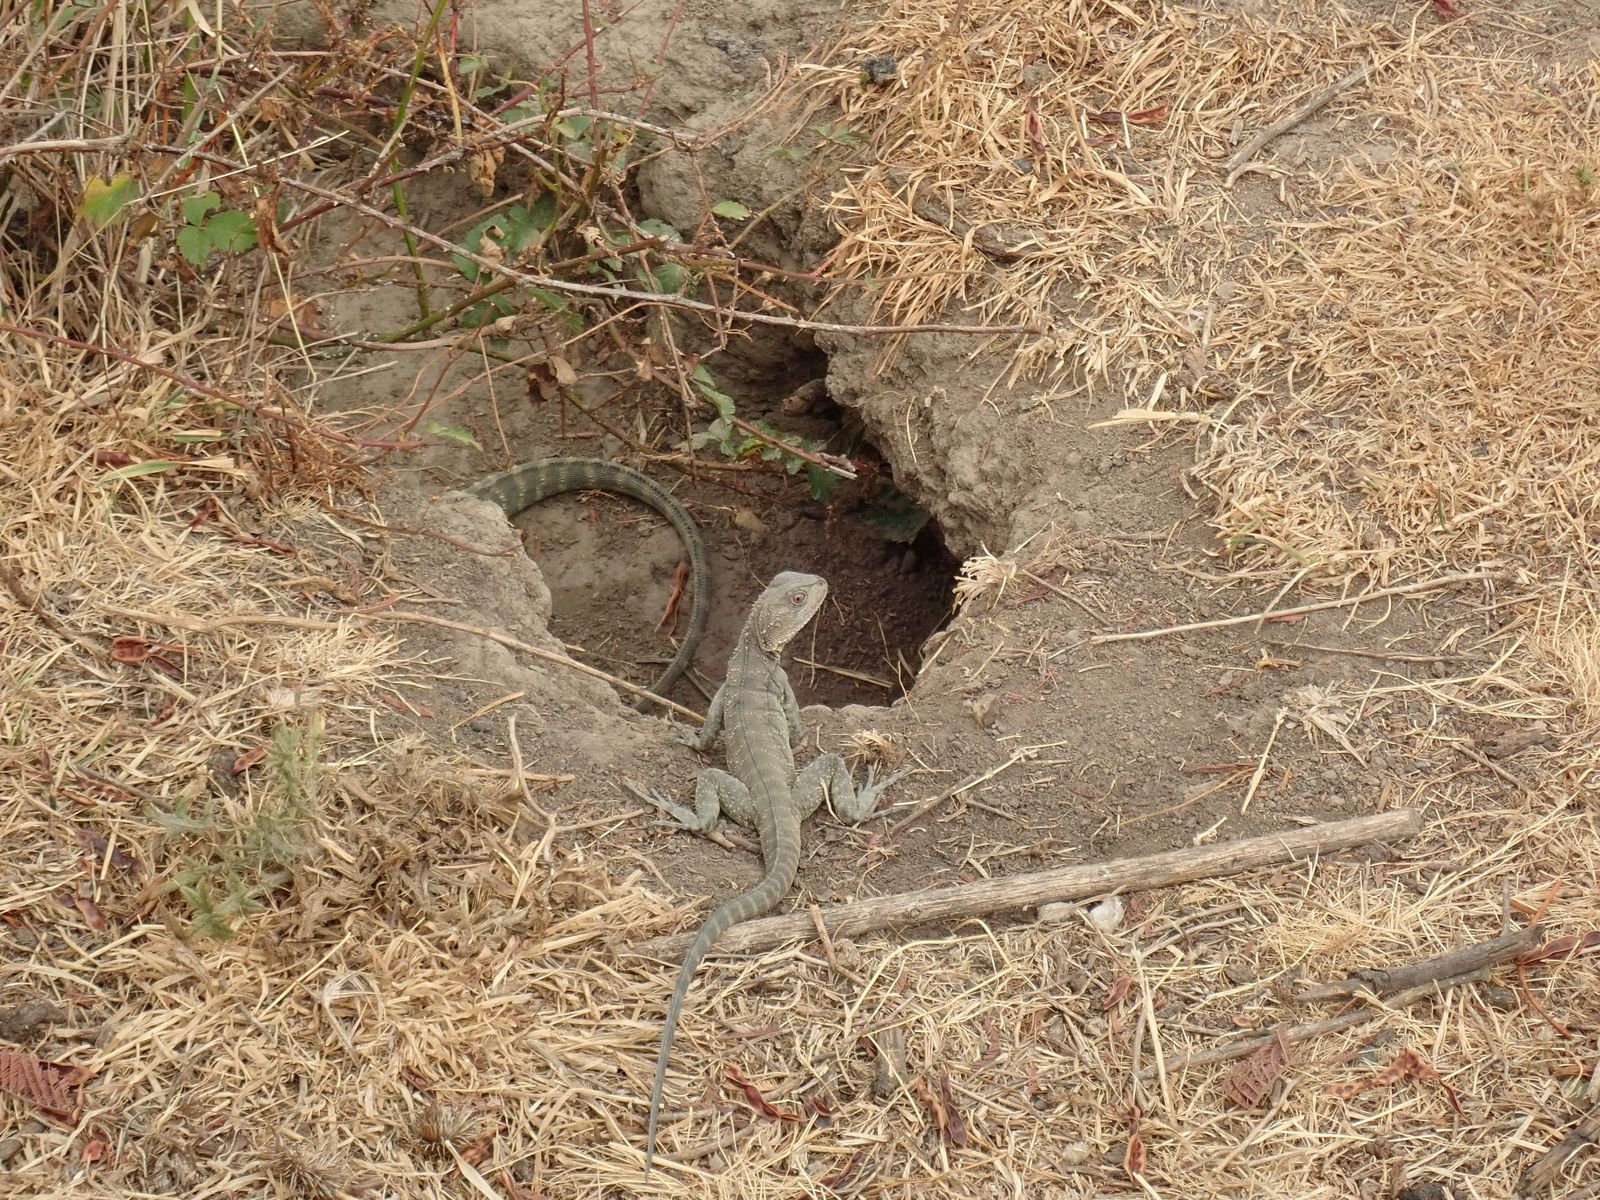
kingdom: Animalia
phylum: Chordata
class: Squamata
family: Agamidae
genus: Intellagama
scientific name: Intellagama lesueurii
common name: Eastern water dragon
